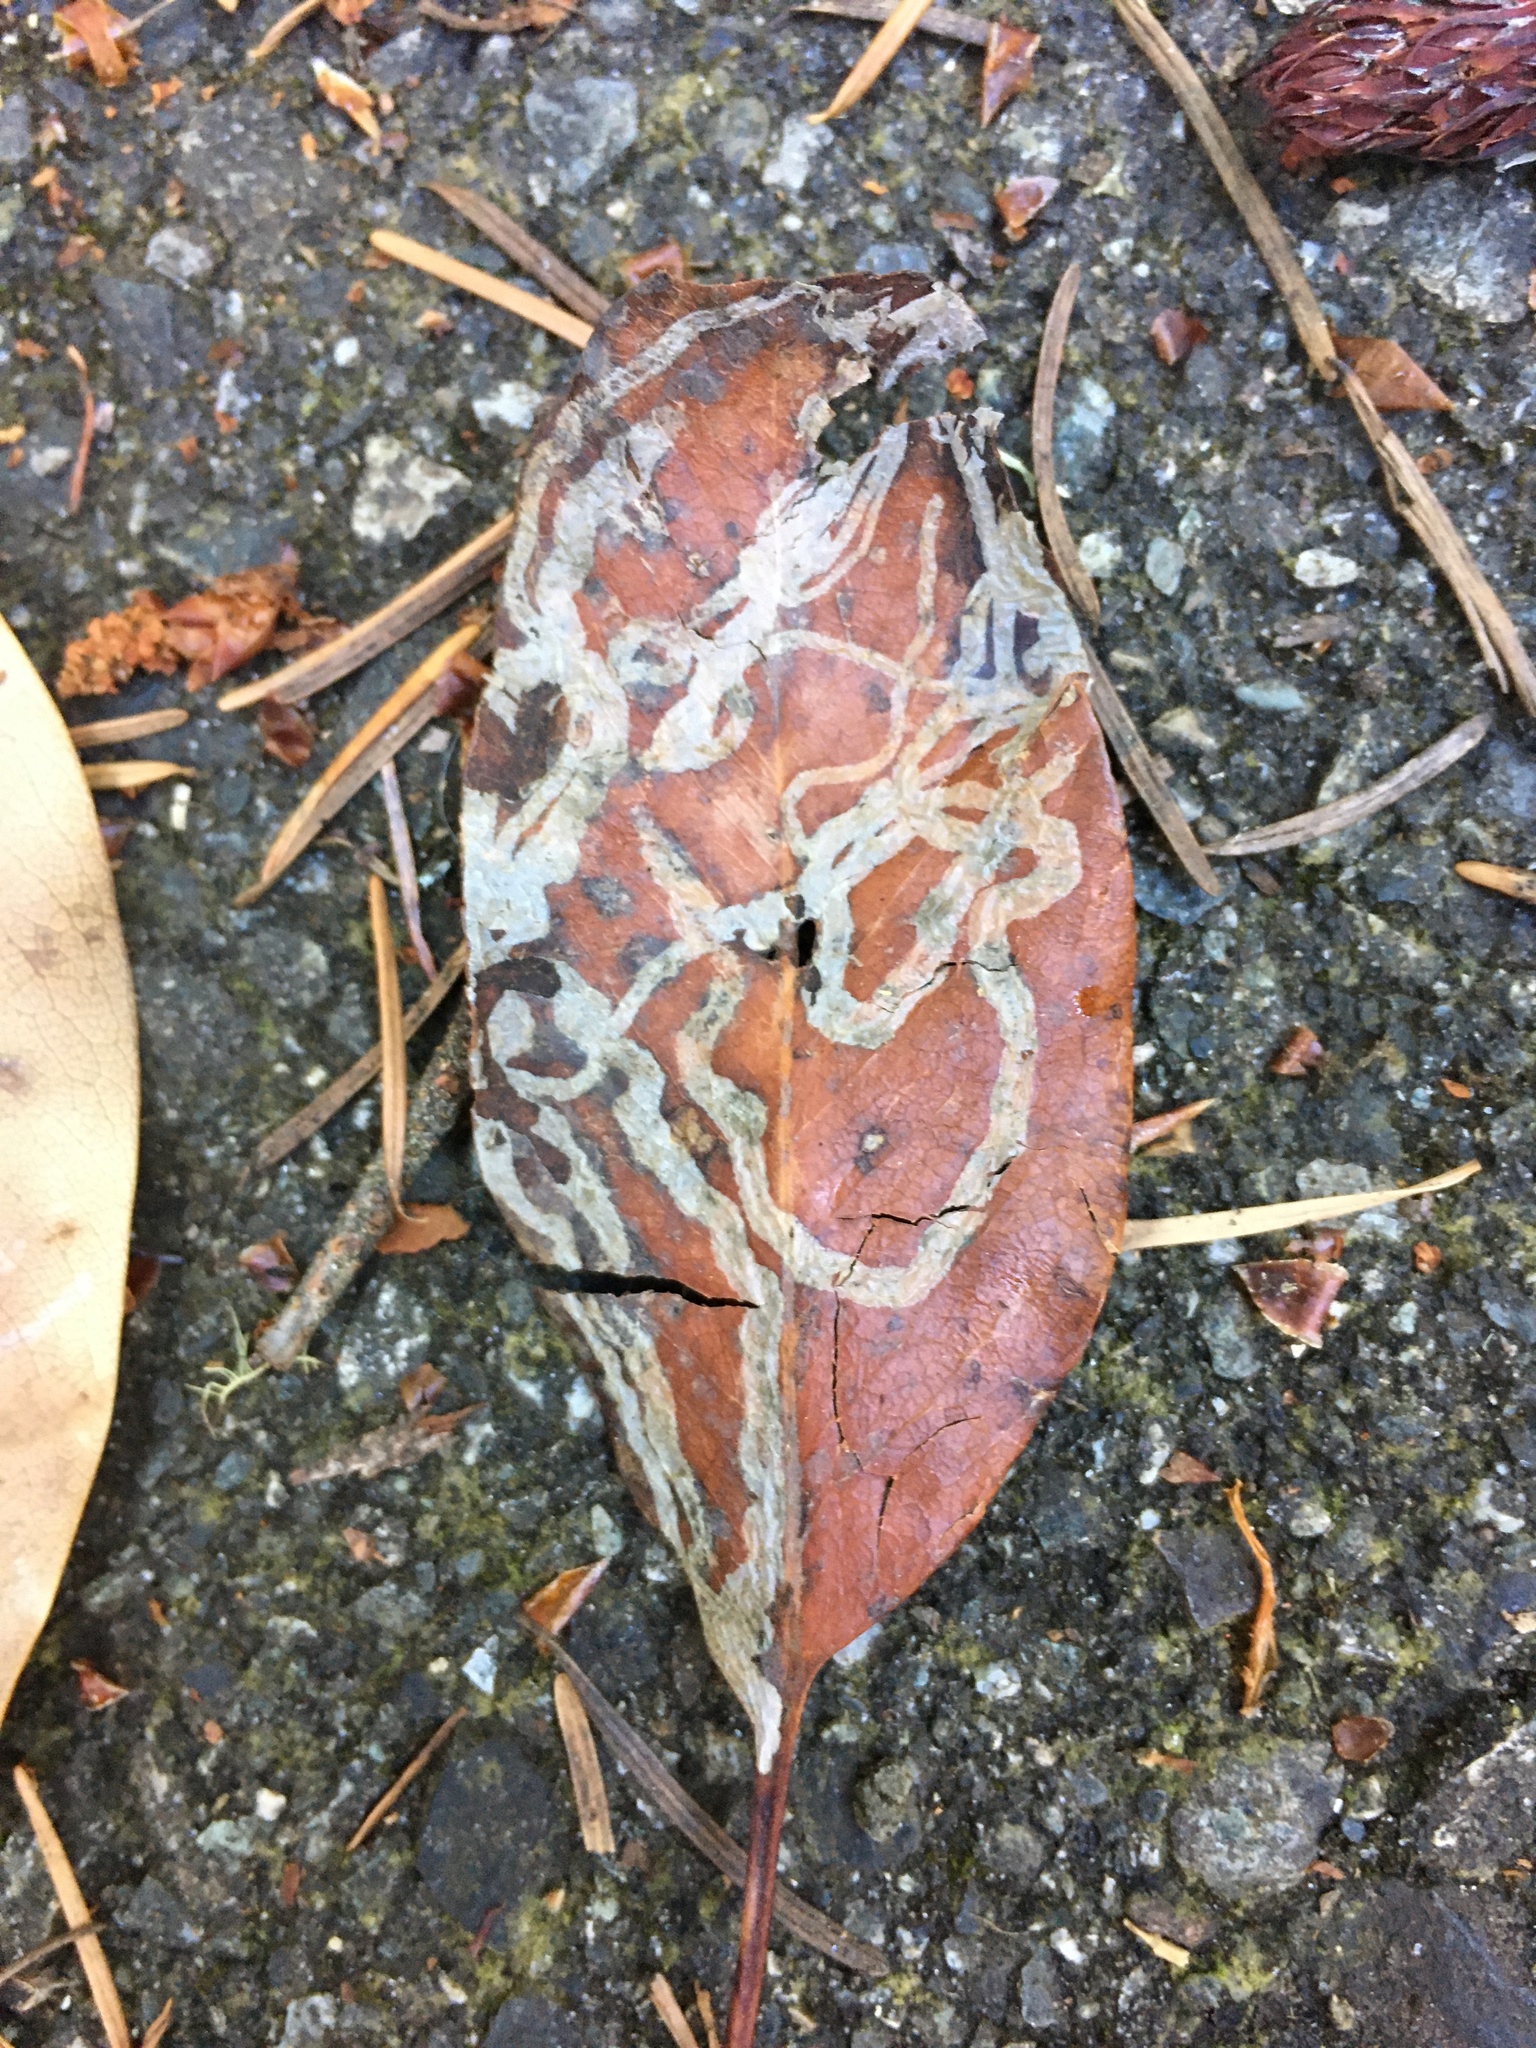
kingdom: Animalia
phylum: Arthropoda
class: Insecta
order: Lepidoptera
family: Gracillariidae
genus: Marmara
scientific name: Marmara arbutiella
